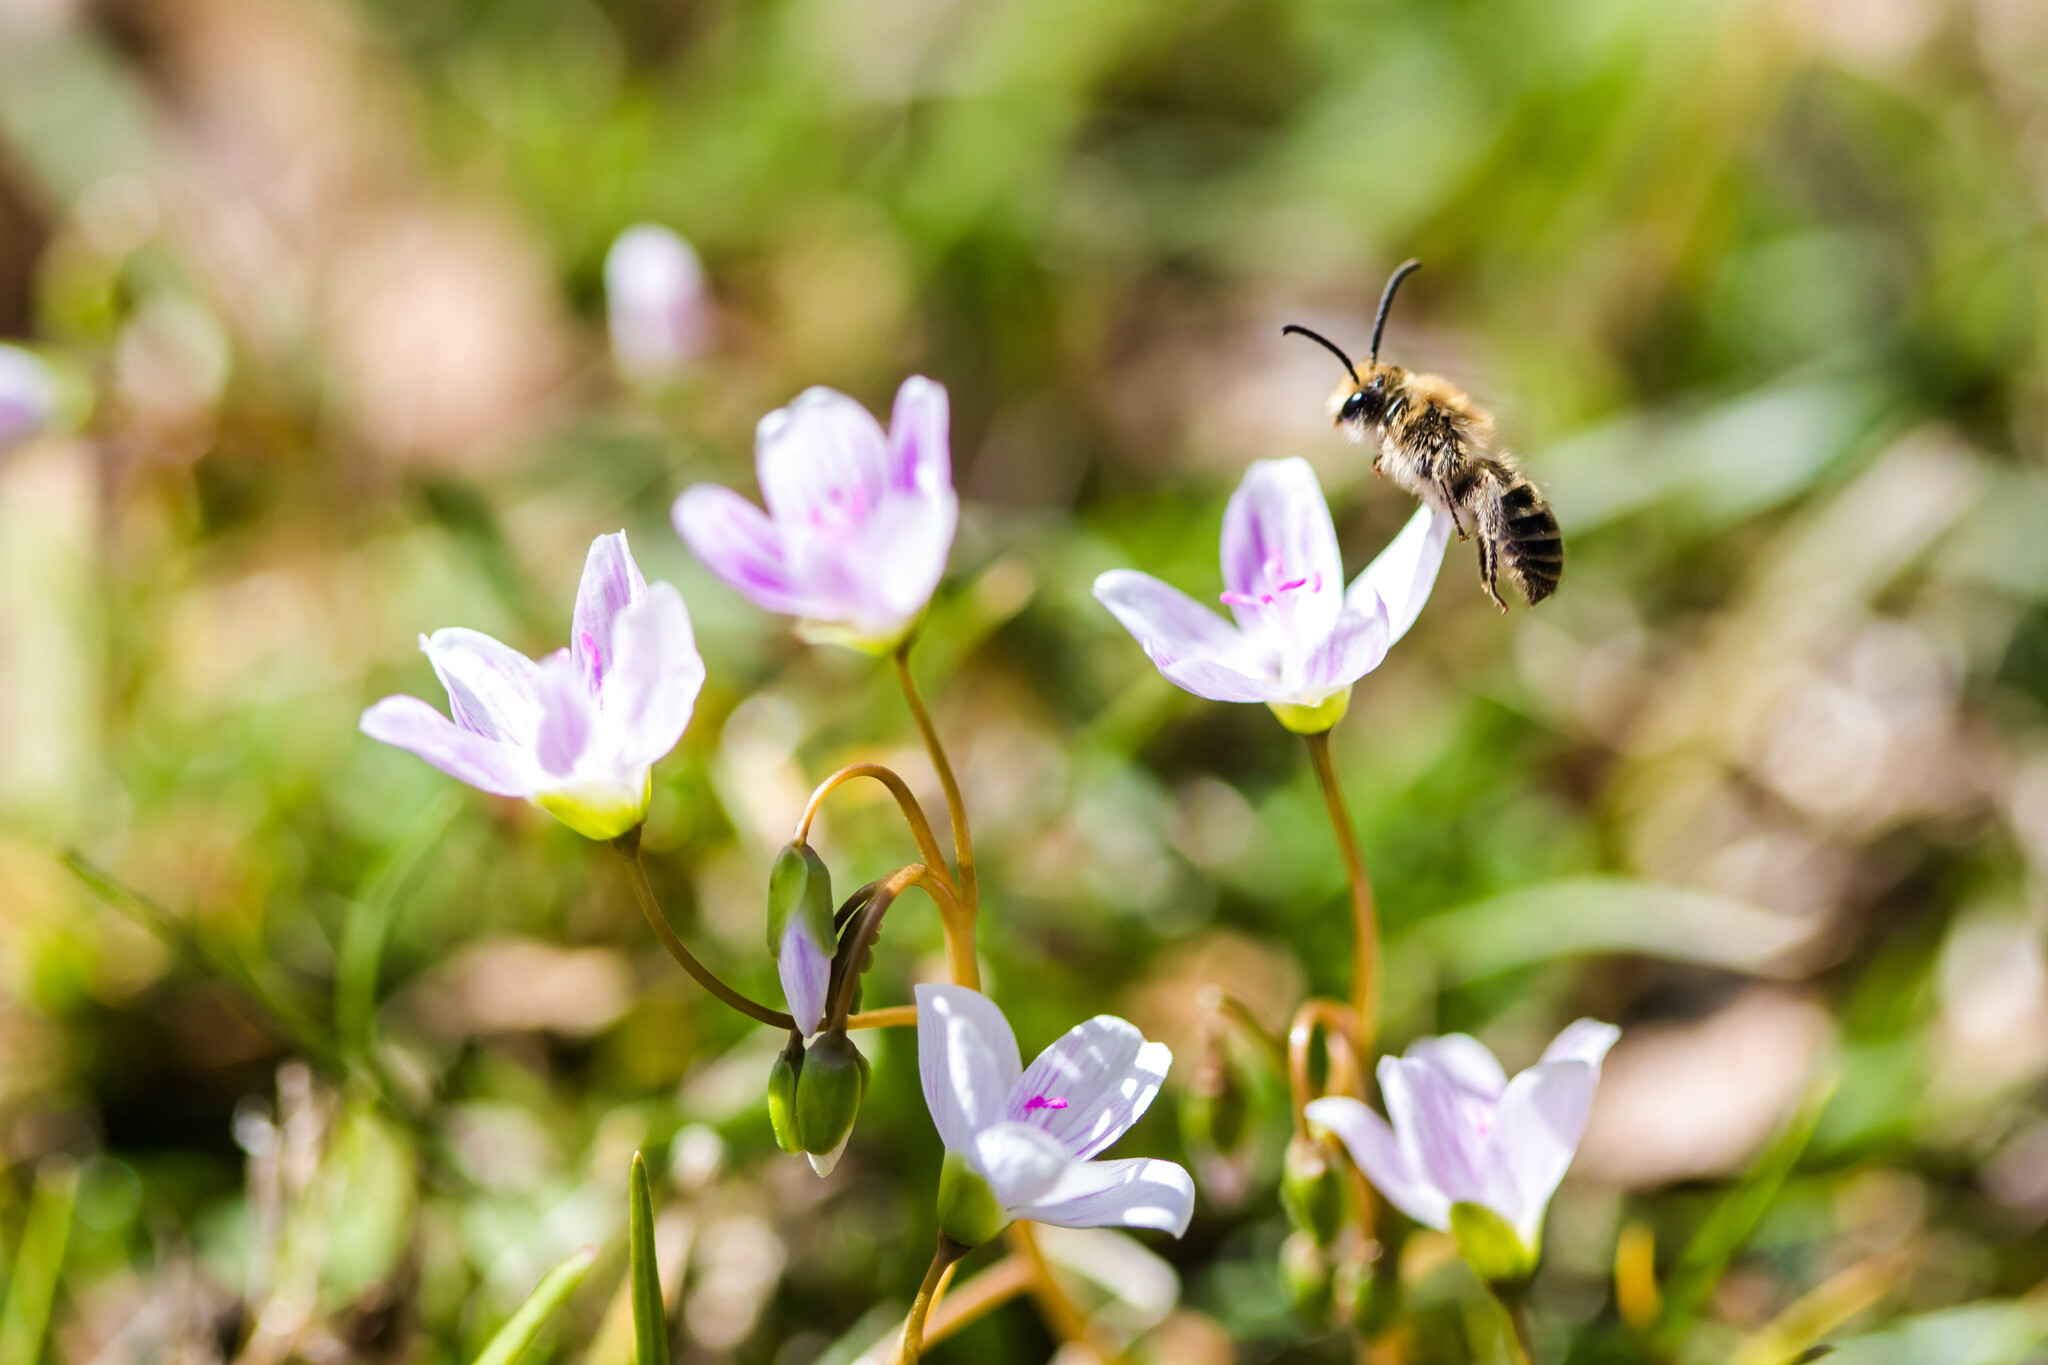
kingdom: Animalia
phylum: Arthropoda
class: Insecta
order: Hymenoptera
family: Colletidae
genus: Colletes
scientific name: Colletes inaequalis
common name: Unequal cellophane bee
